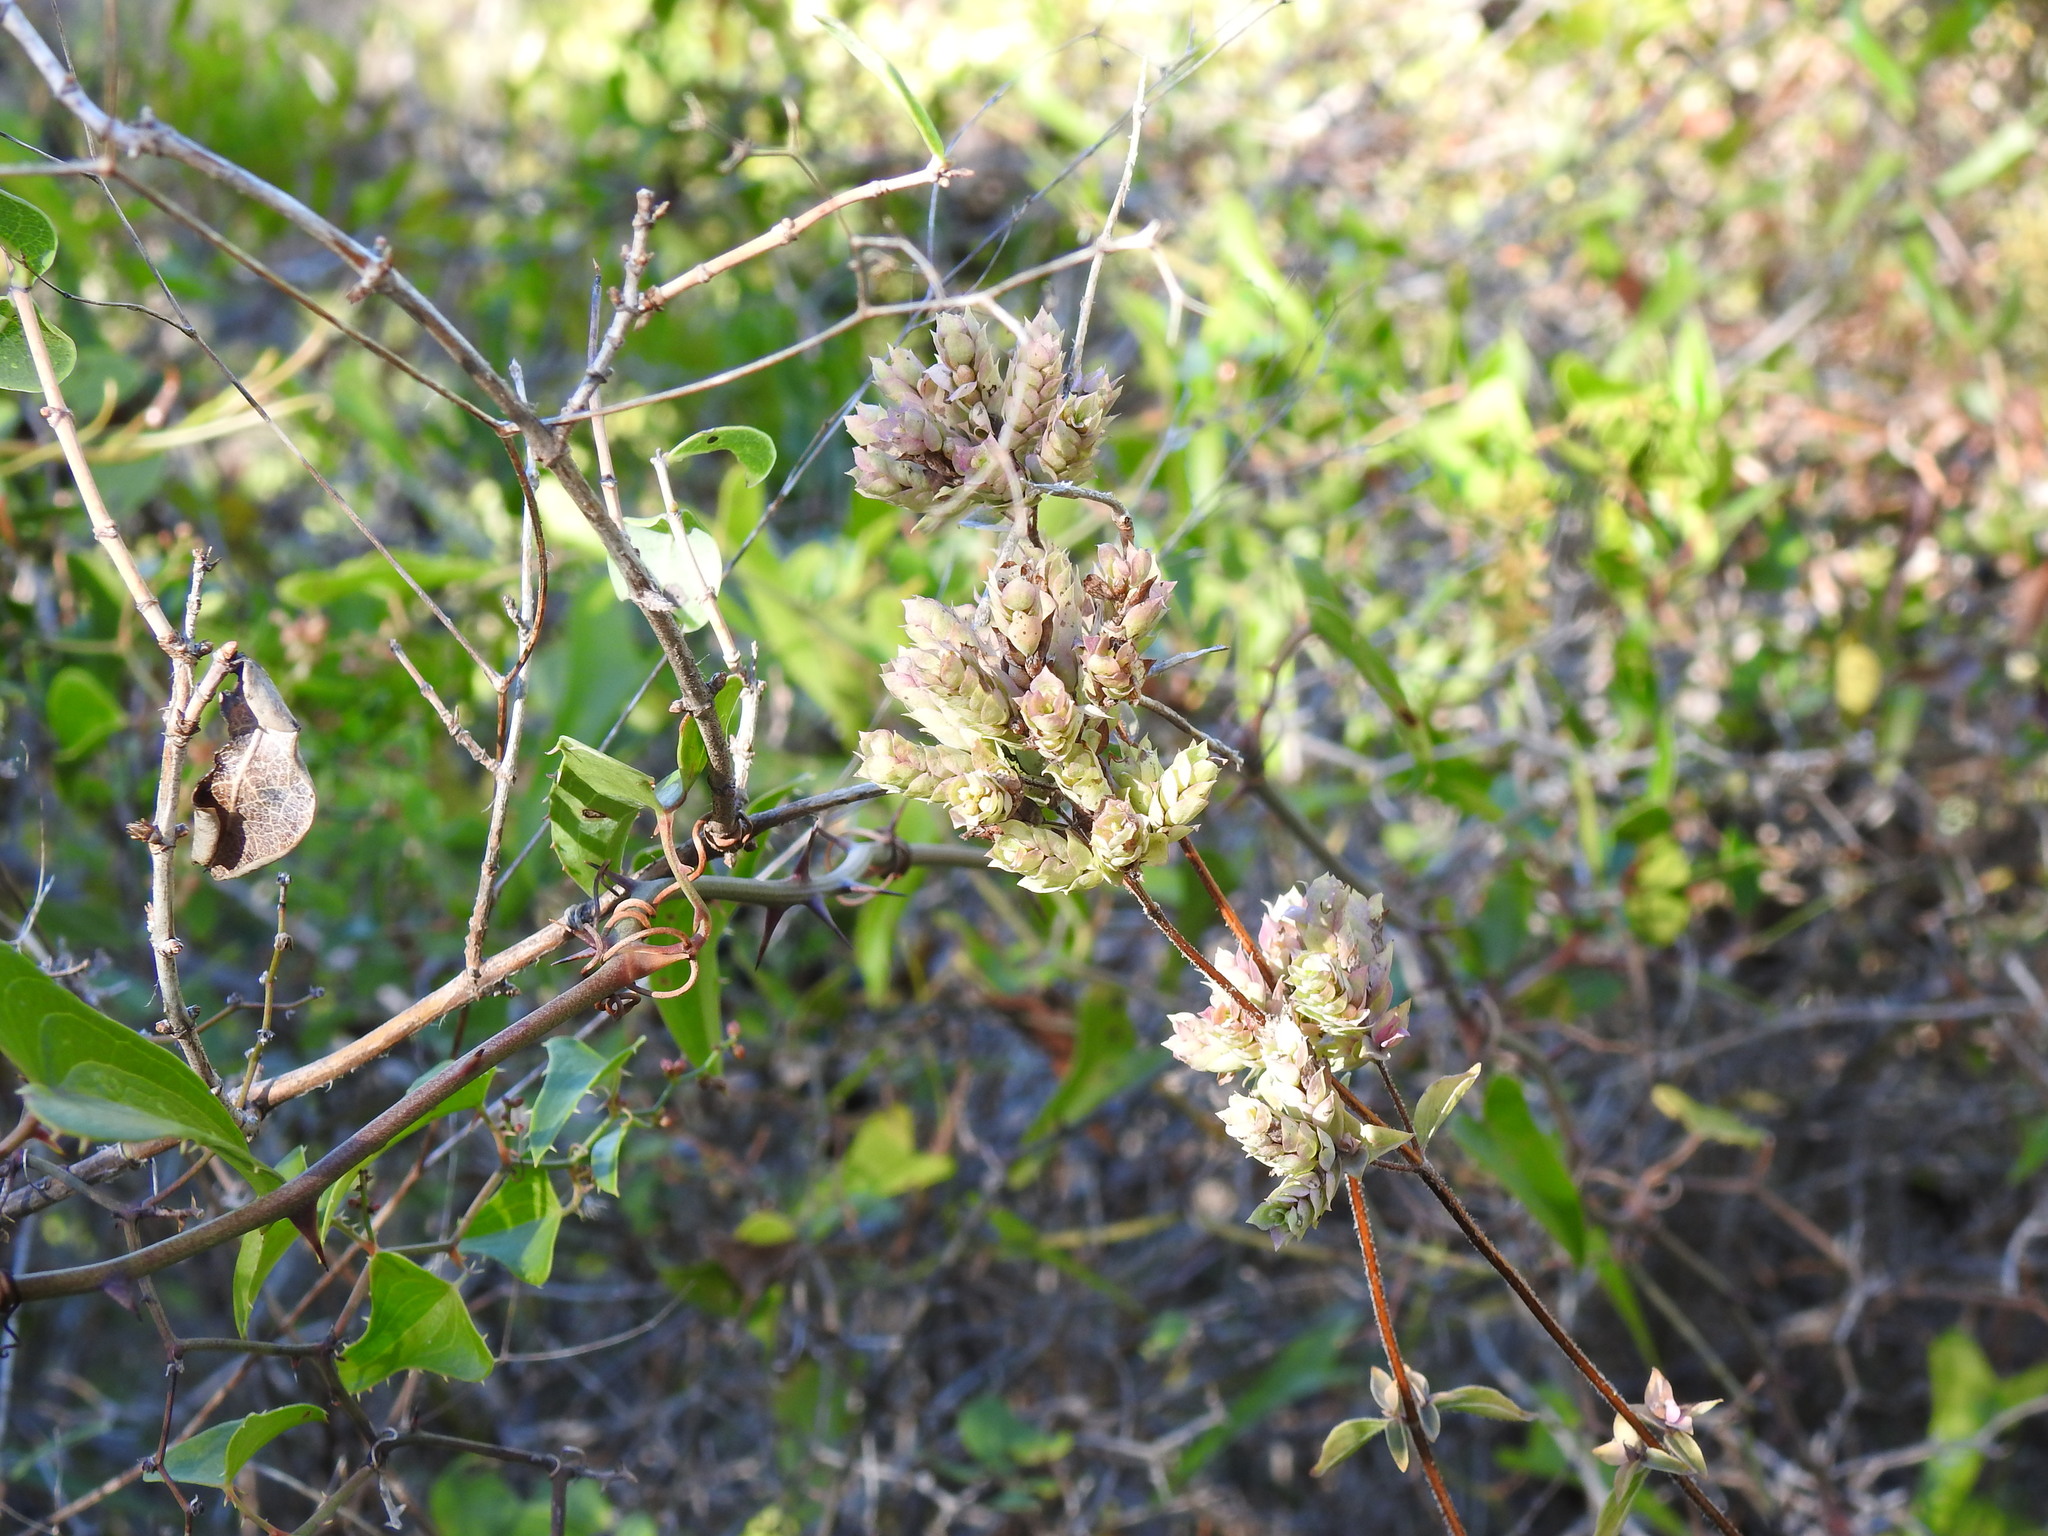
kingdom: Plantae
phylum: Tracheophyta
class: Magnoliopsida
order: Lamiales
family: Lamiaceae
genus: Origanum
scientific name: Origanum vulgare
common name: Wild marjoram
